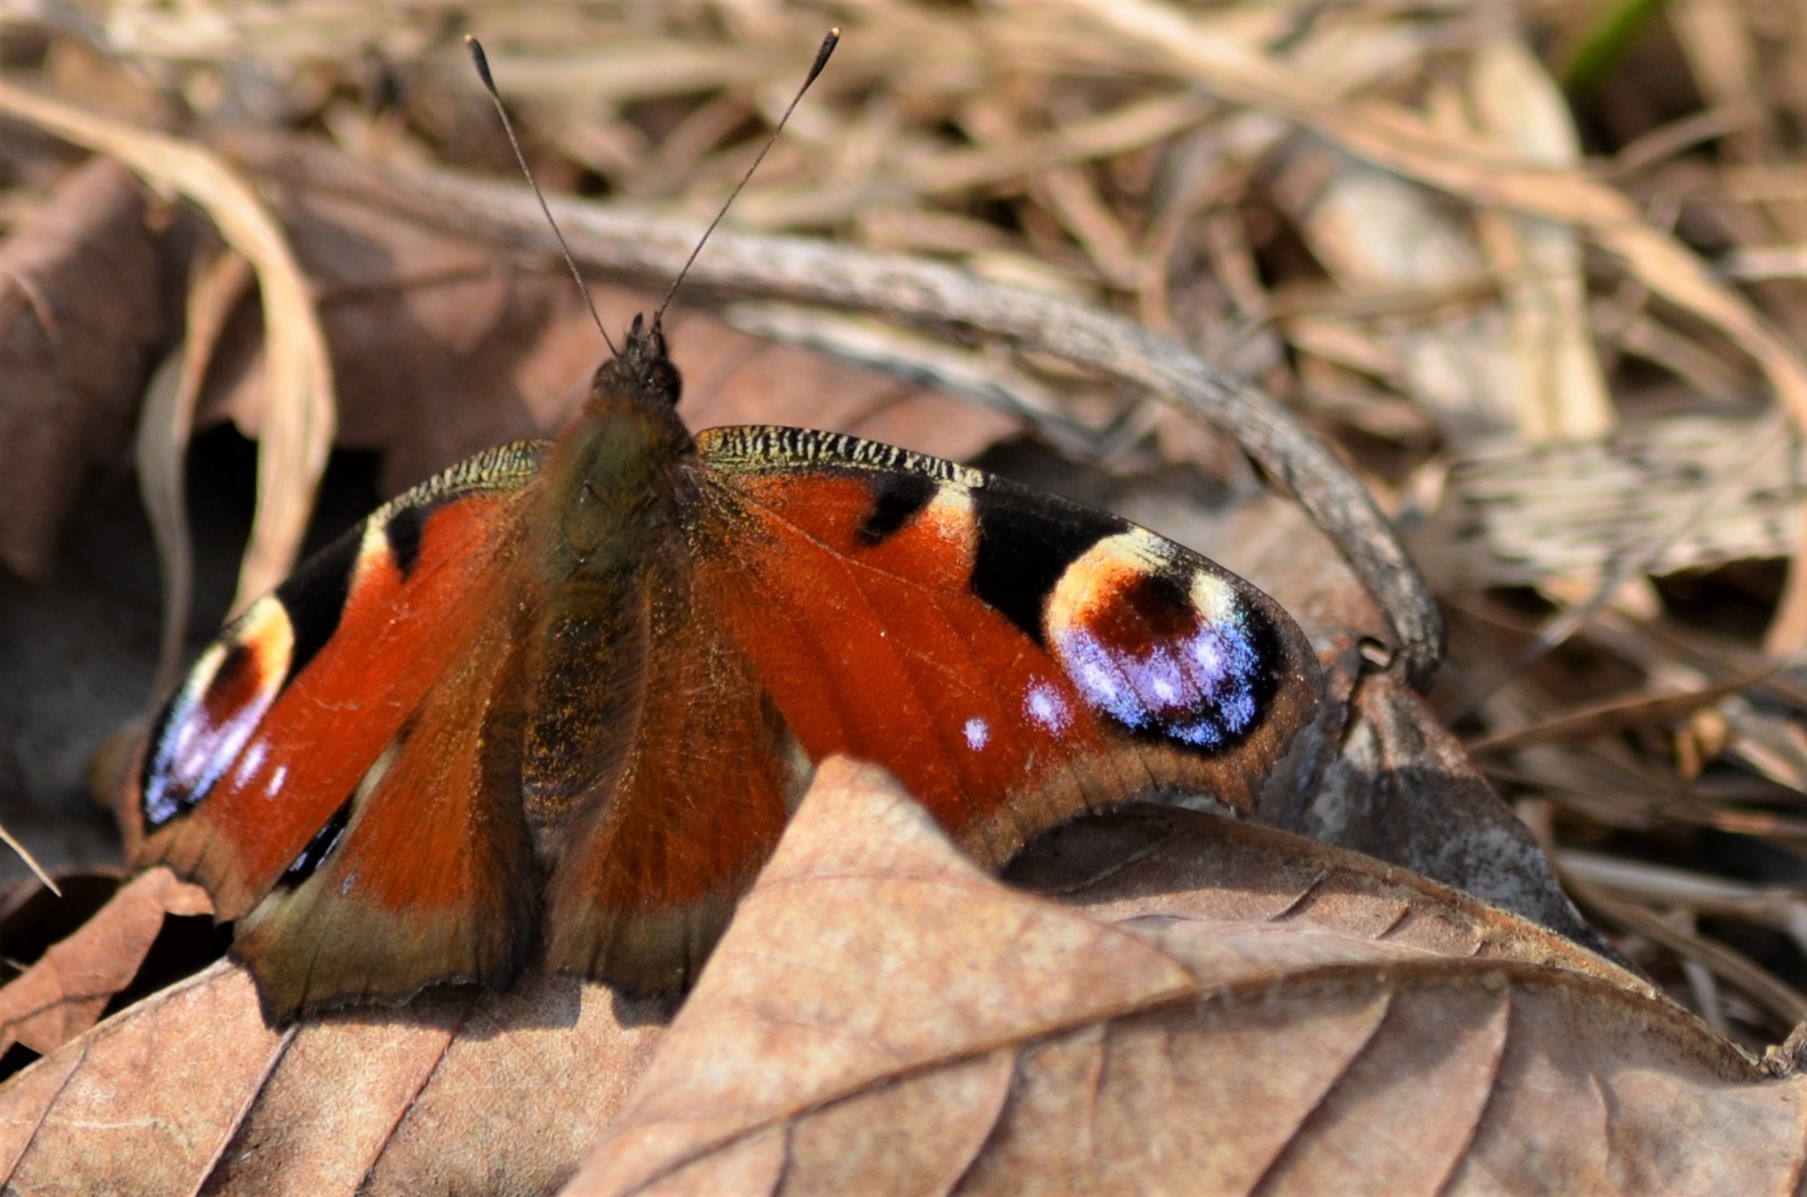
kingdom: Animalia
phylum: Arthropoda
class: Insecta
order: Lepidoptera
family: Nymphalidae
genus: Aglais
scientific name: Aglais io
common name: Peacock
